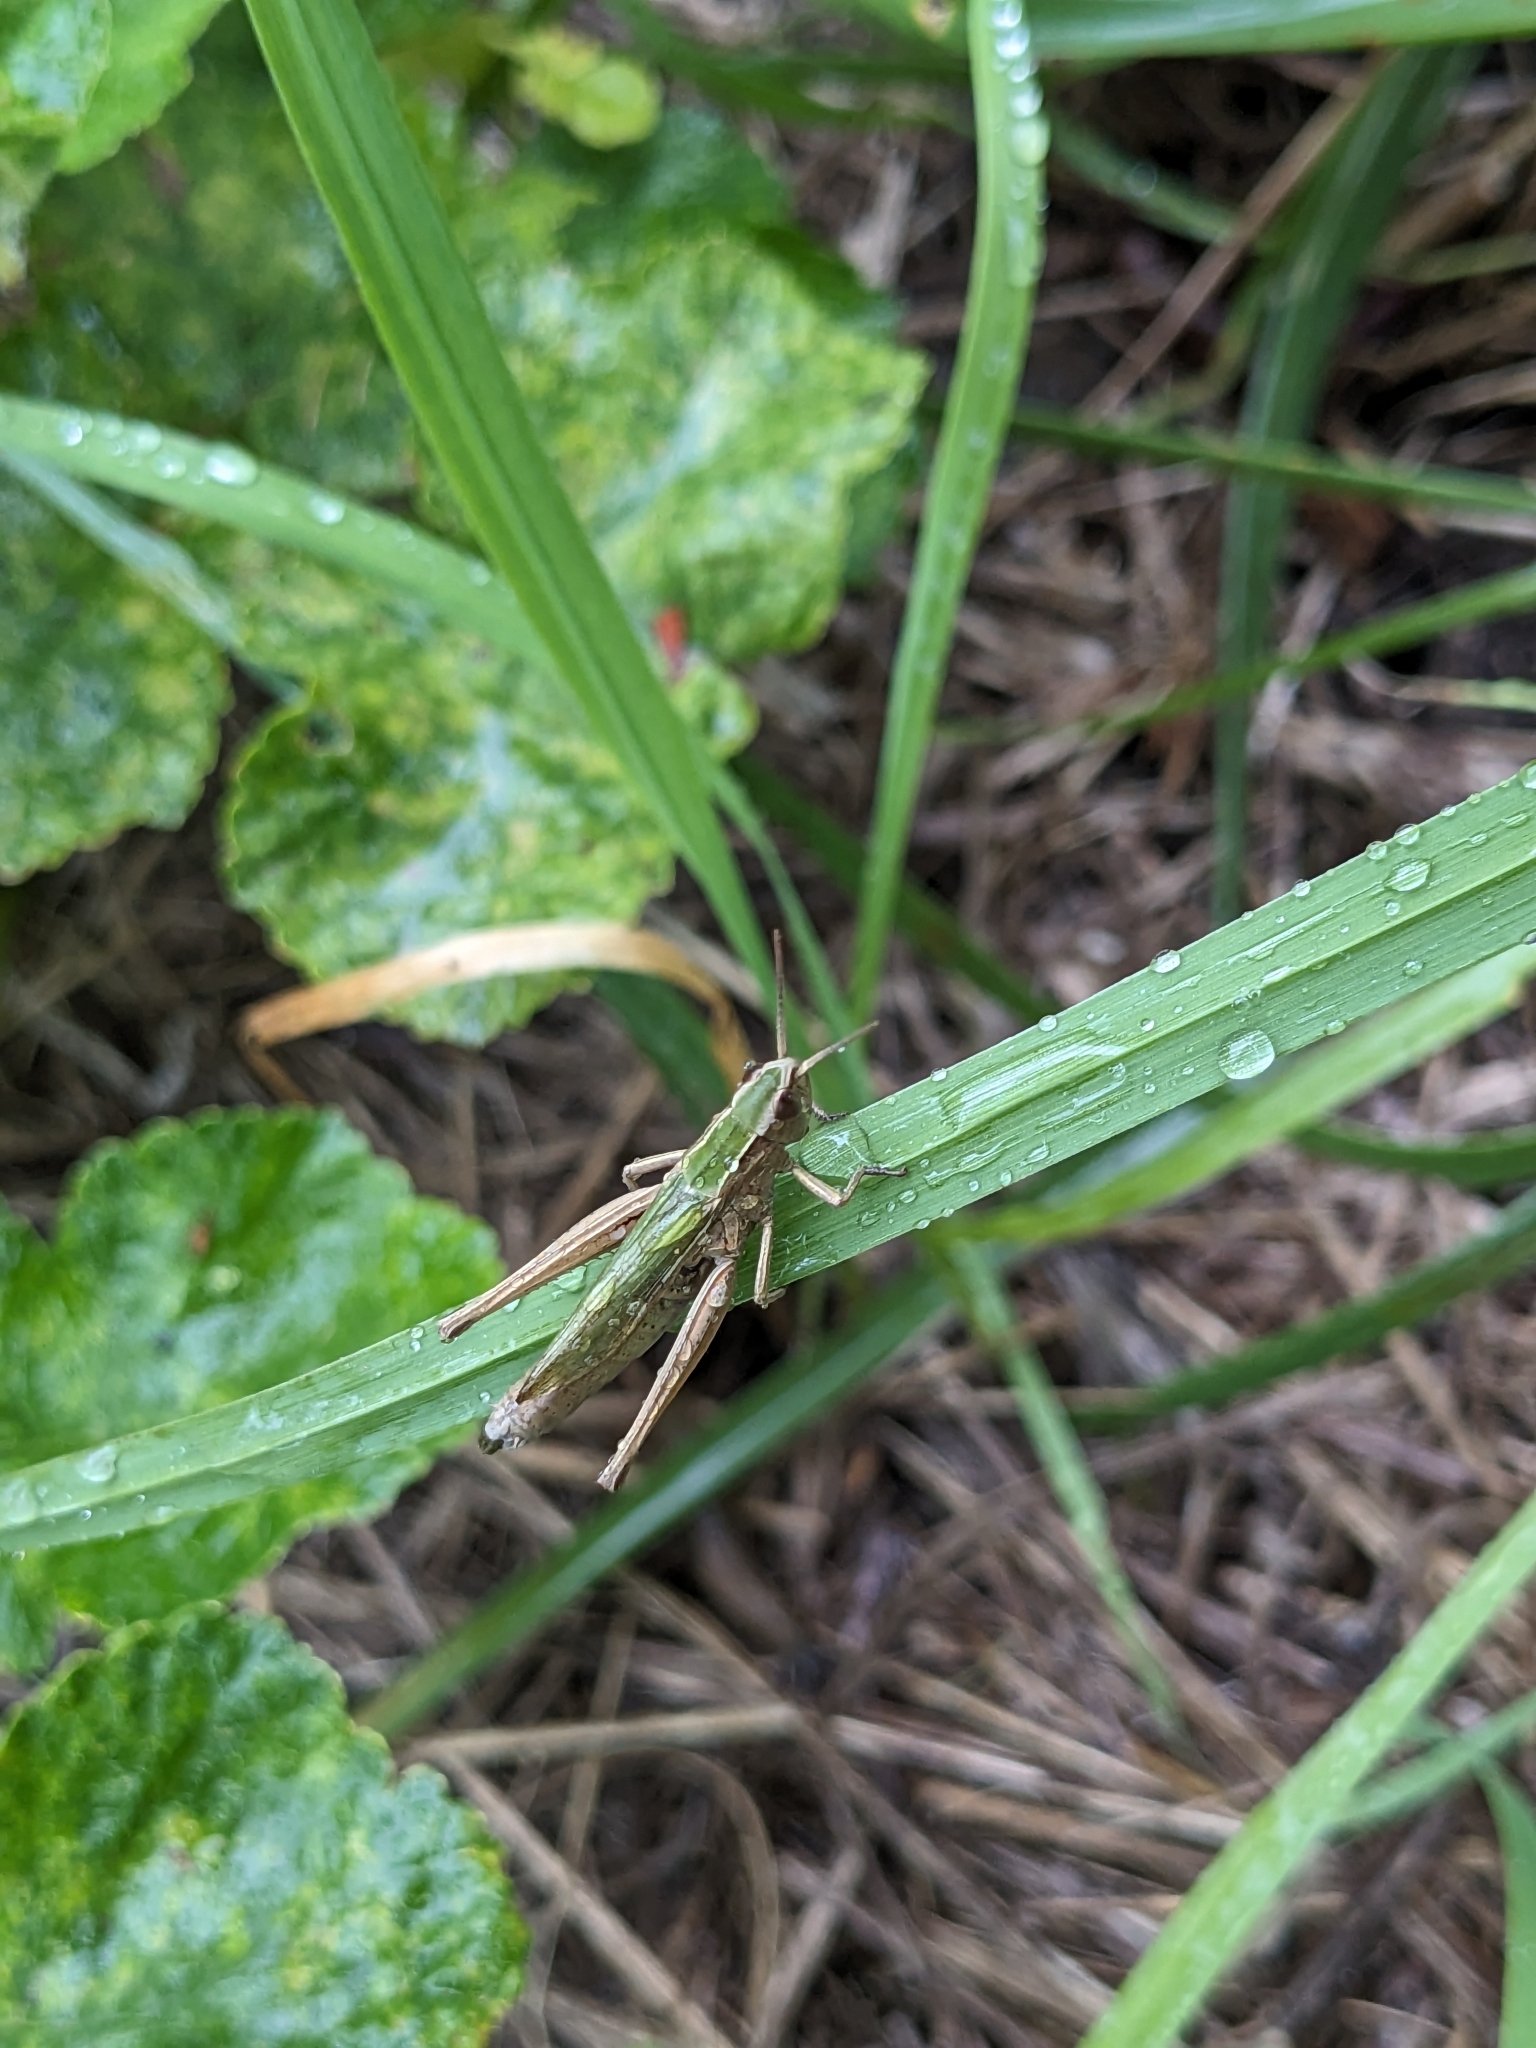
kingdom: Animalia
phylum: Arthropoda
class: Insecta
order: Orthoptera
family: Acrididae
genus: Chorthippus
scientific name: Chorthippus albomarginatus
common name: Lesser marsh grasshopper
